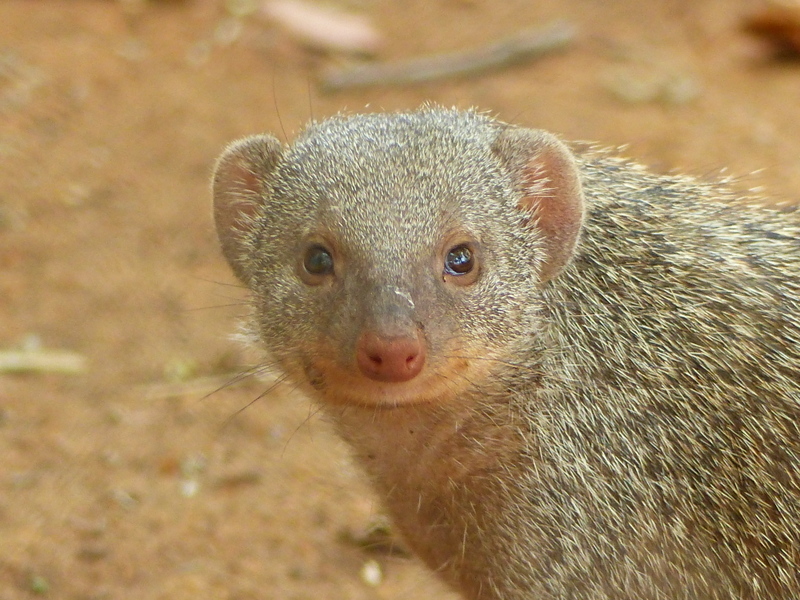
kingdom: Animalia
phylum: Chordata
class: Mammalia
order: Carnivora
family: Herpestidae
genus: Mungos
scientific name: Mungos mungo
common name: Banded mongoose
